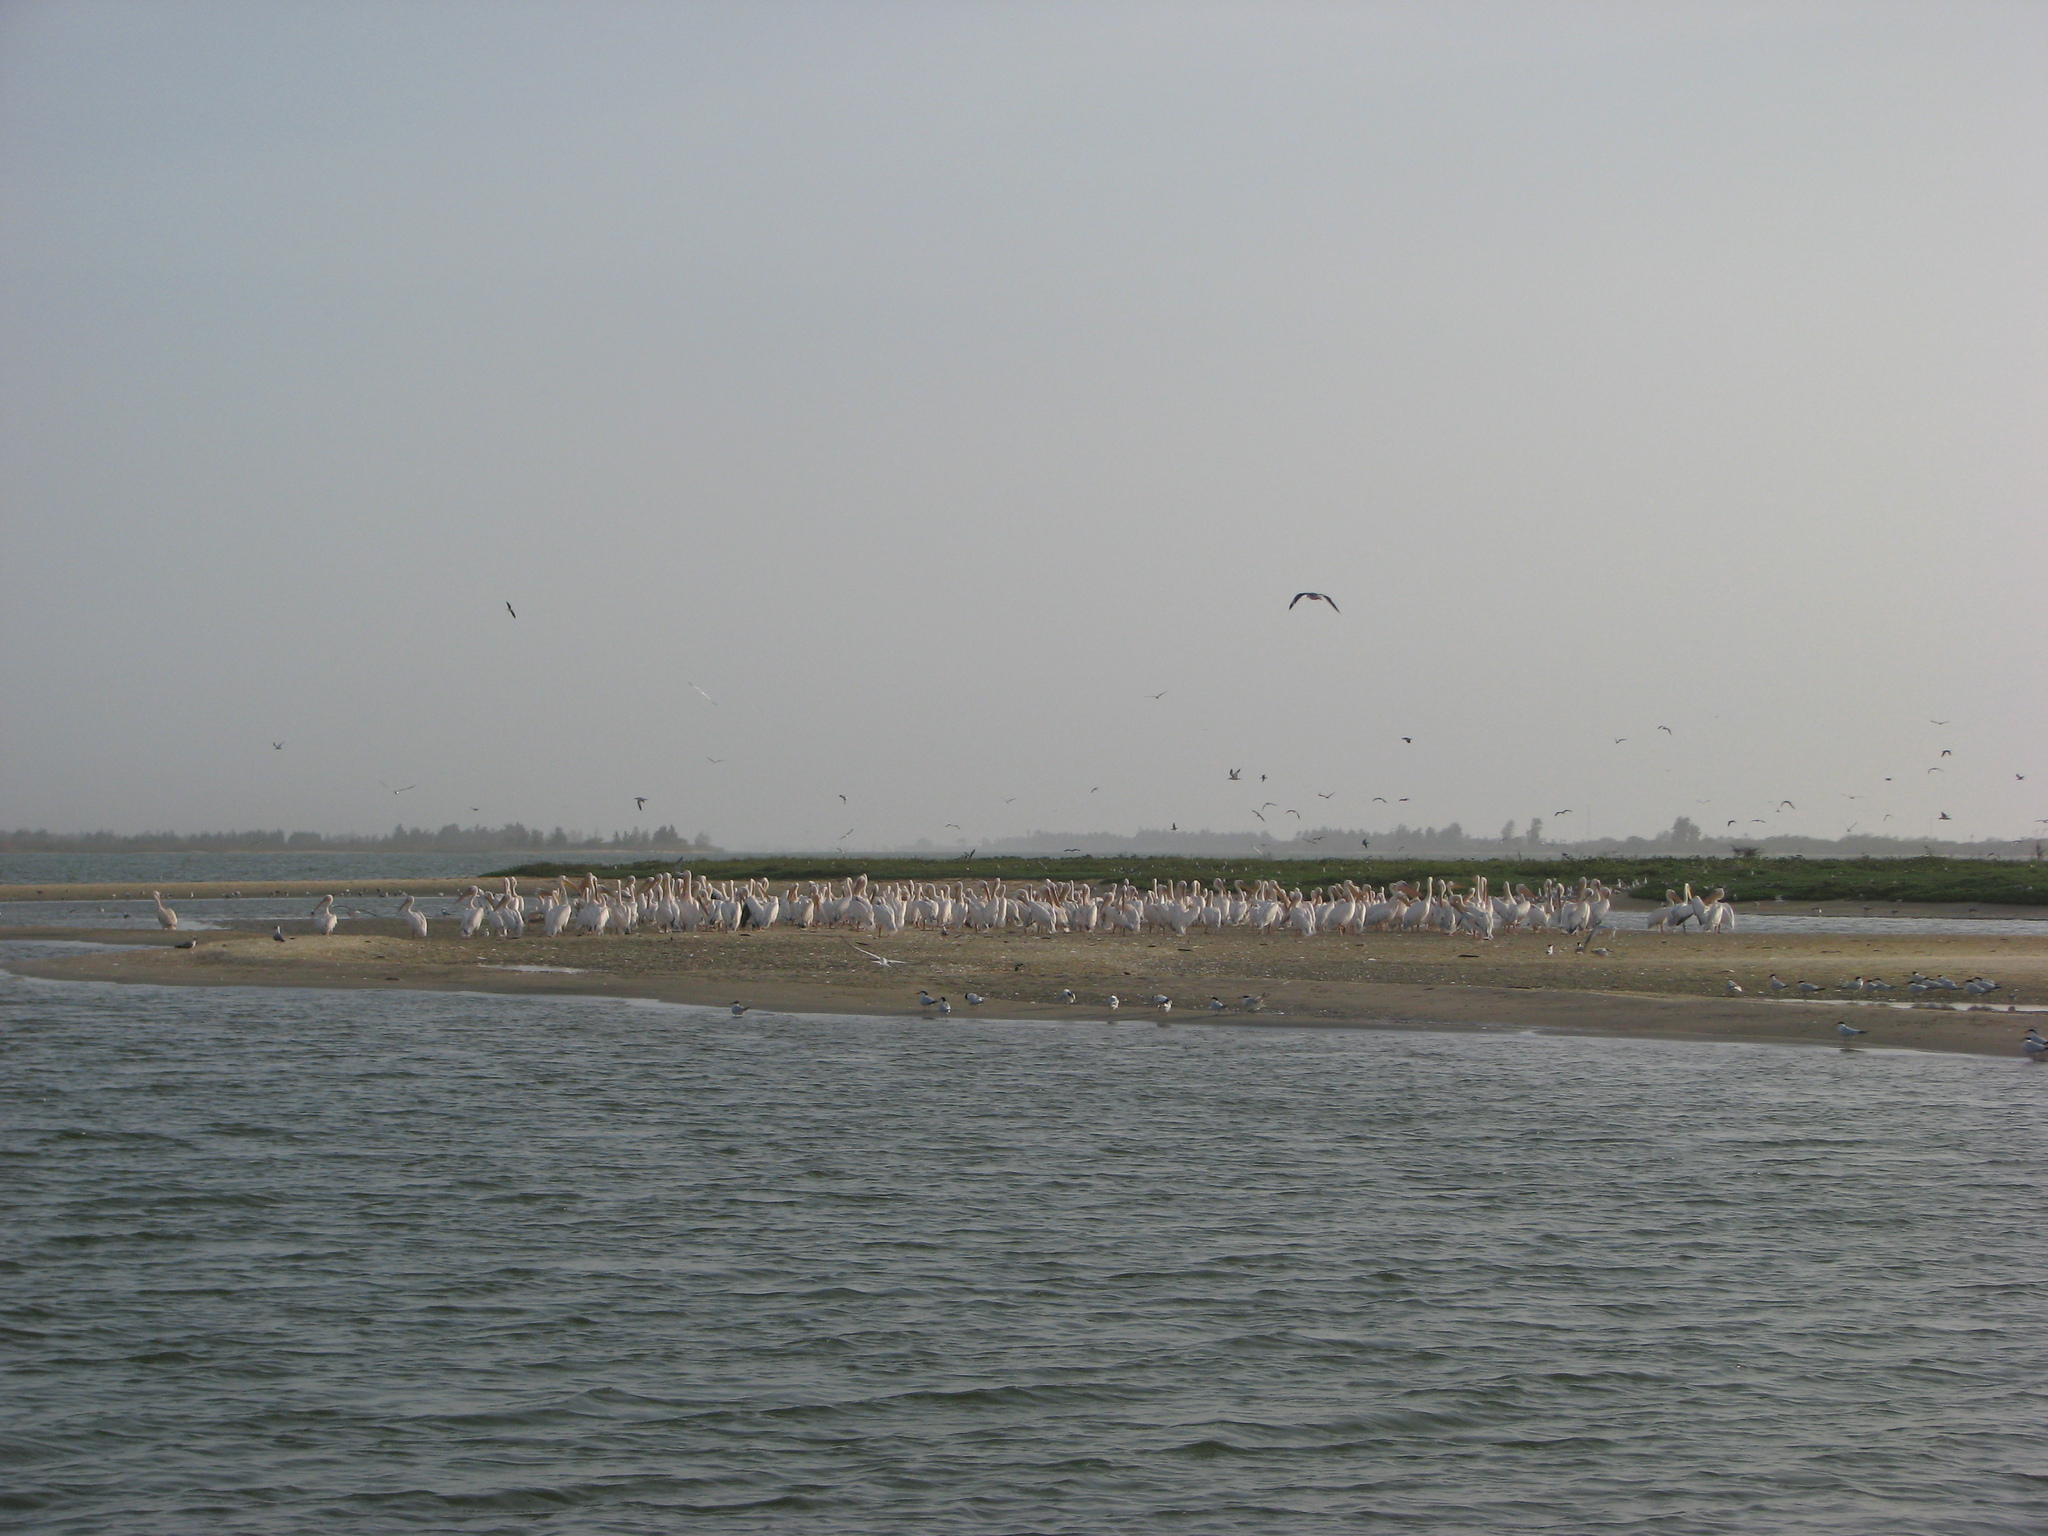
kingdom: Animalia
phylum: Chordata
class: Aves
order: Pelecaniformes
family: Pelecanidae
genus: Pelecanus
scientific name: Pelecanus onocrotalus
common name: Great white pelican
